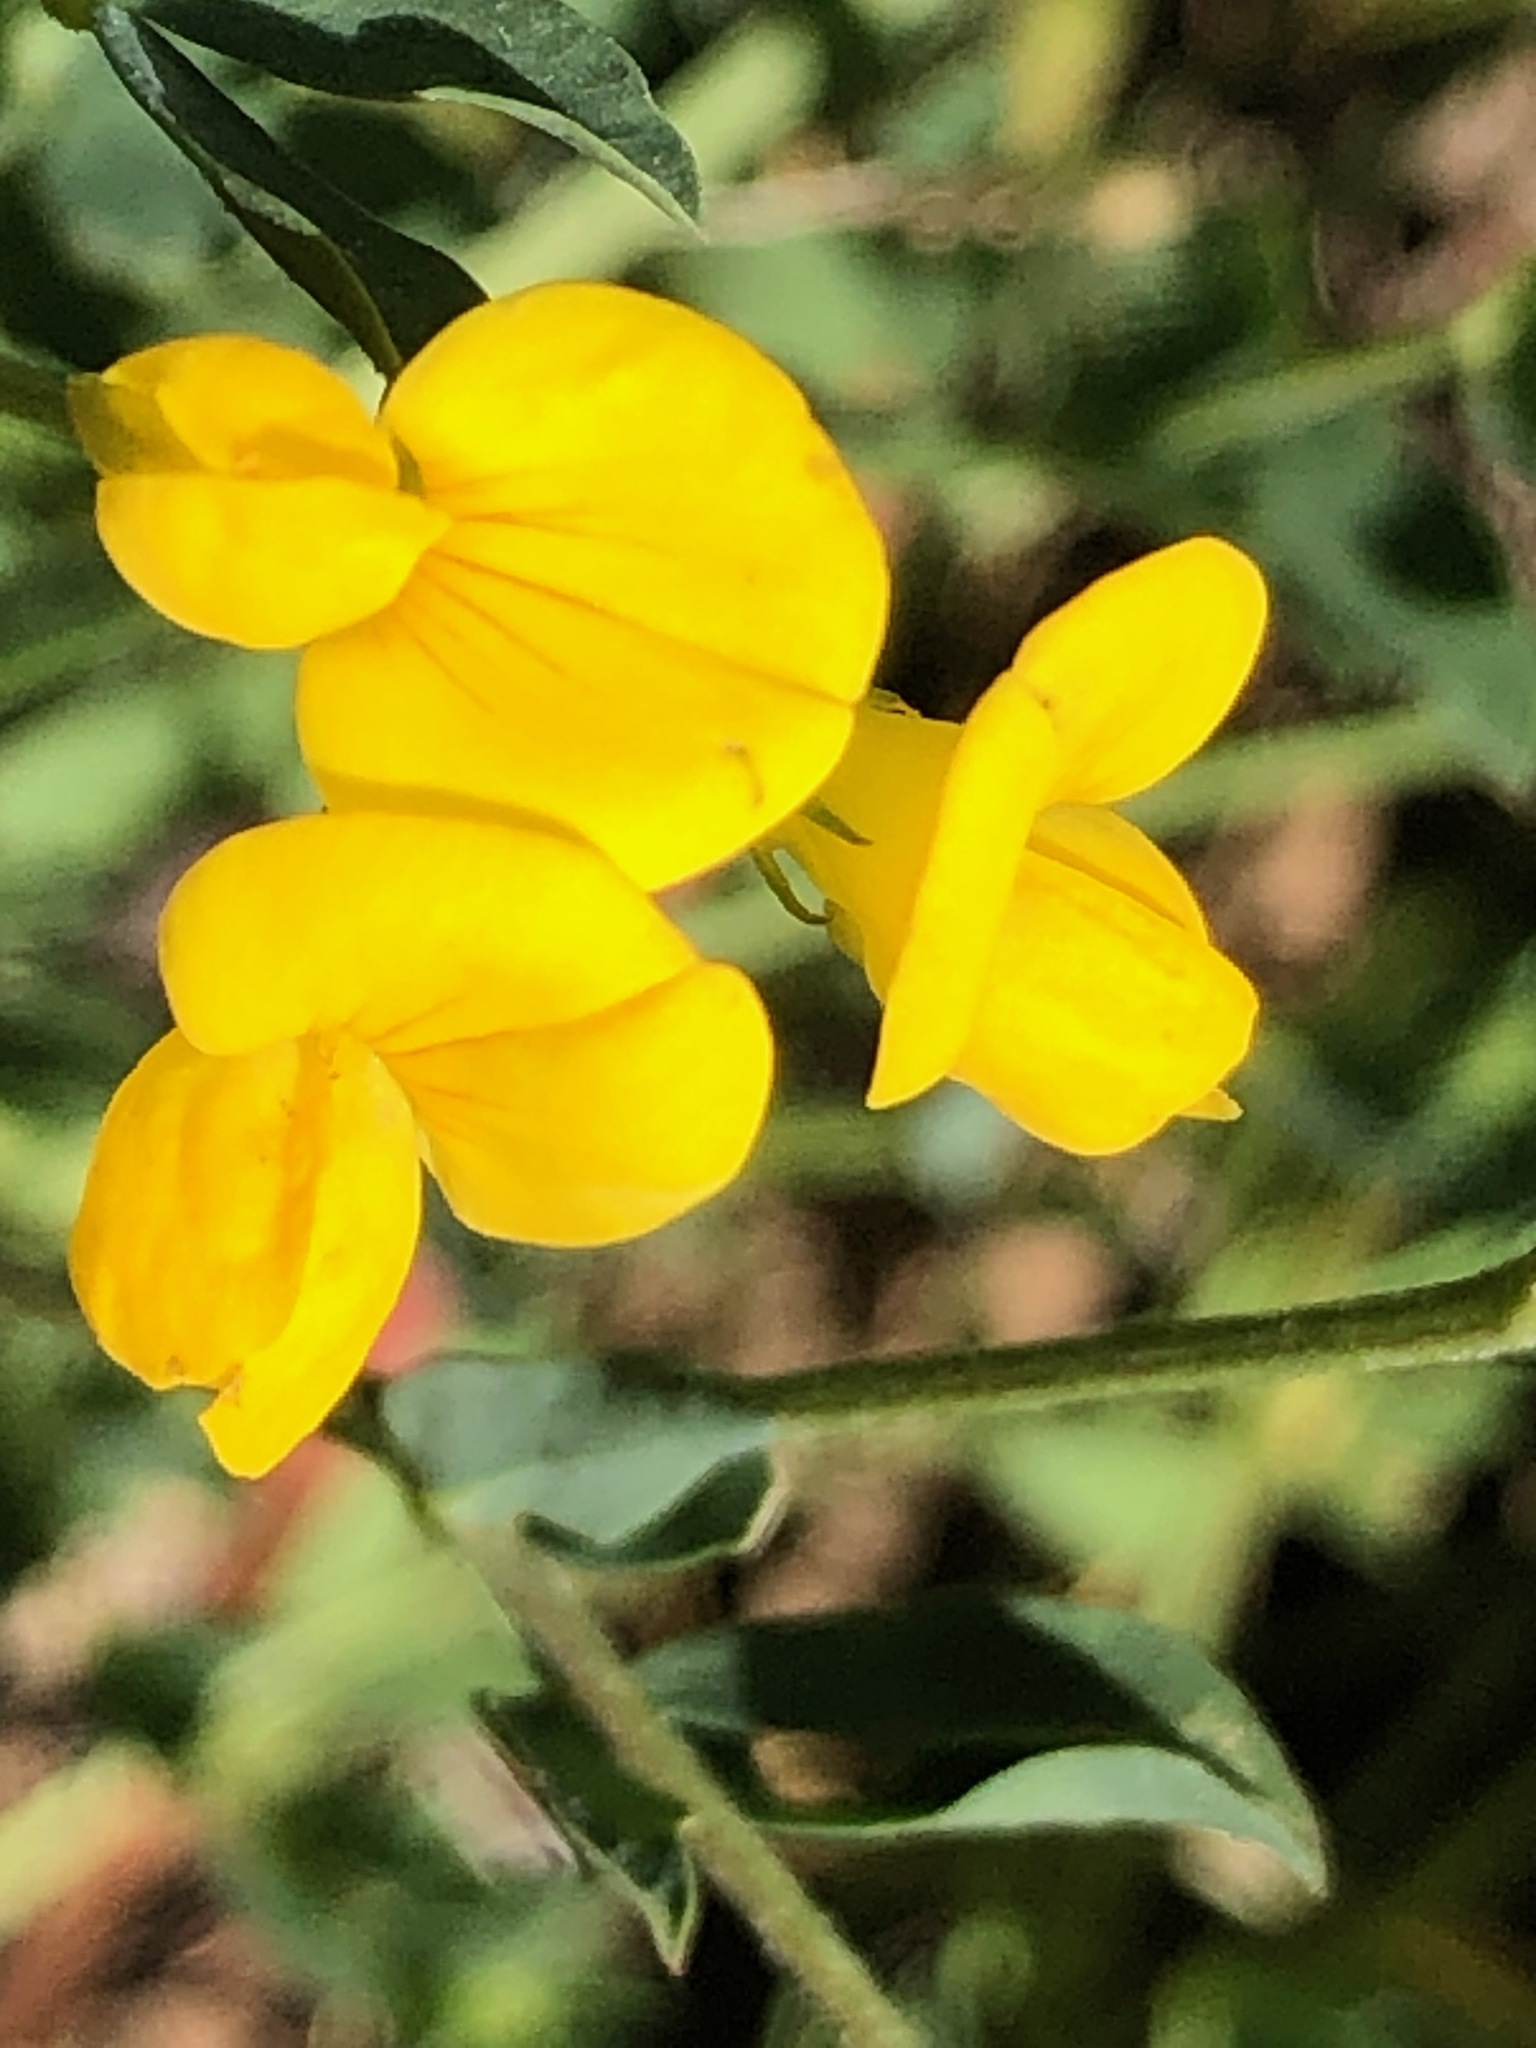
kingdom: Plantae
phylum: Tracheophyta
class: Magnoliopsida
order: Fabales
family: Fabaceae
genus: Lotus
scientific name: Lotus corniculatus
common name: Common bird's-foot-trefoil
